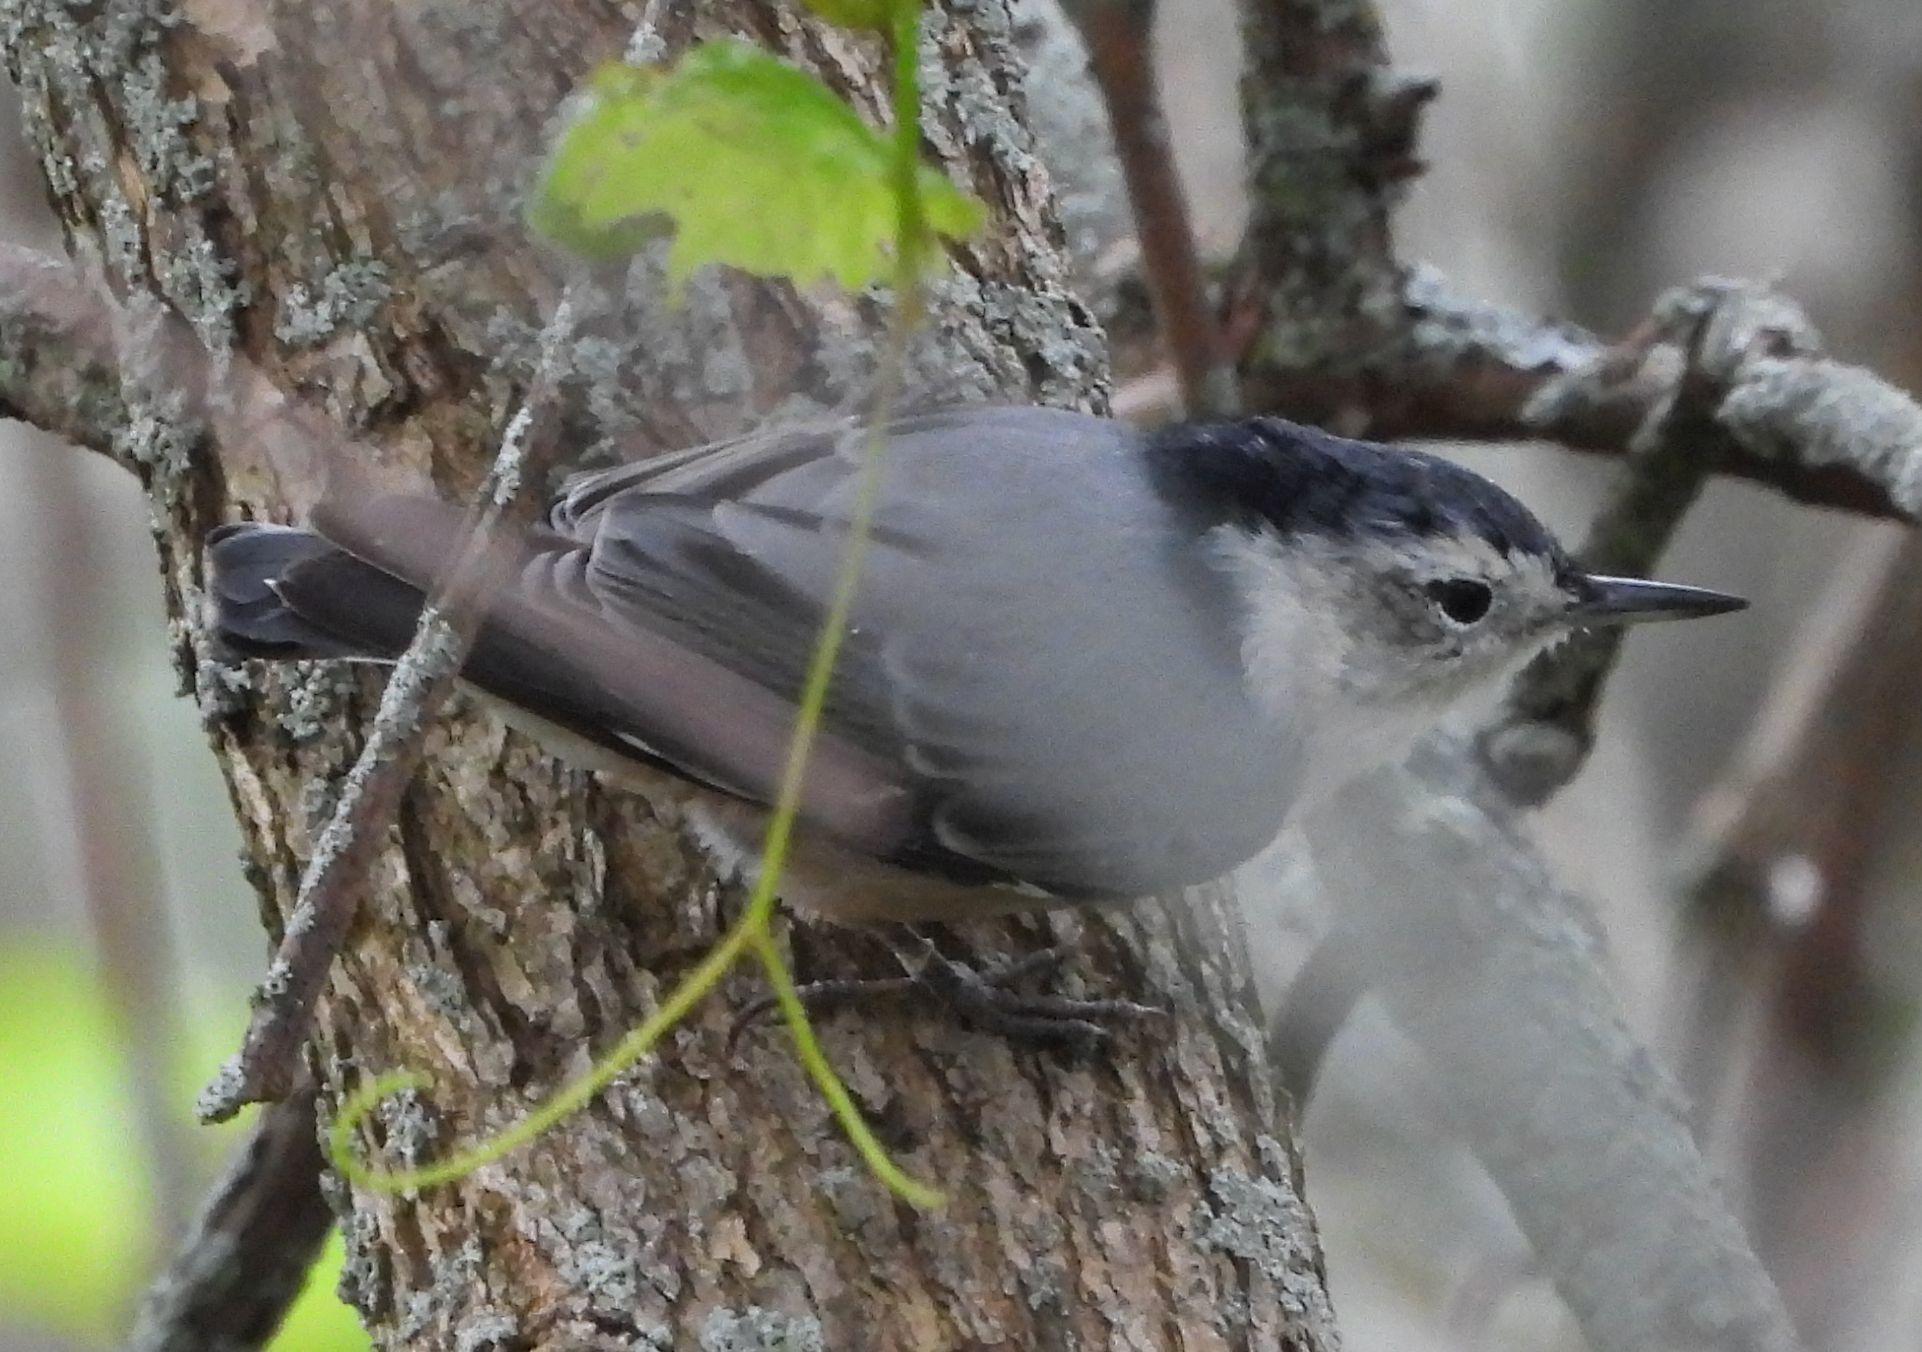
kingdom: Animalia
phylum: Chordata
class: Aves
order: Passeriformes
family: Sittidae
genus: Sitta
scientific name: Sitta carolinensis
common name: White-breasted nuthatch
